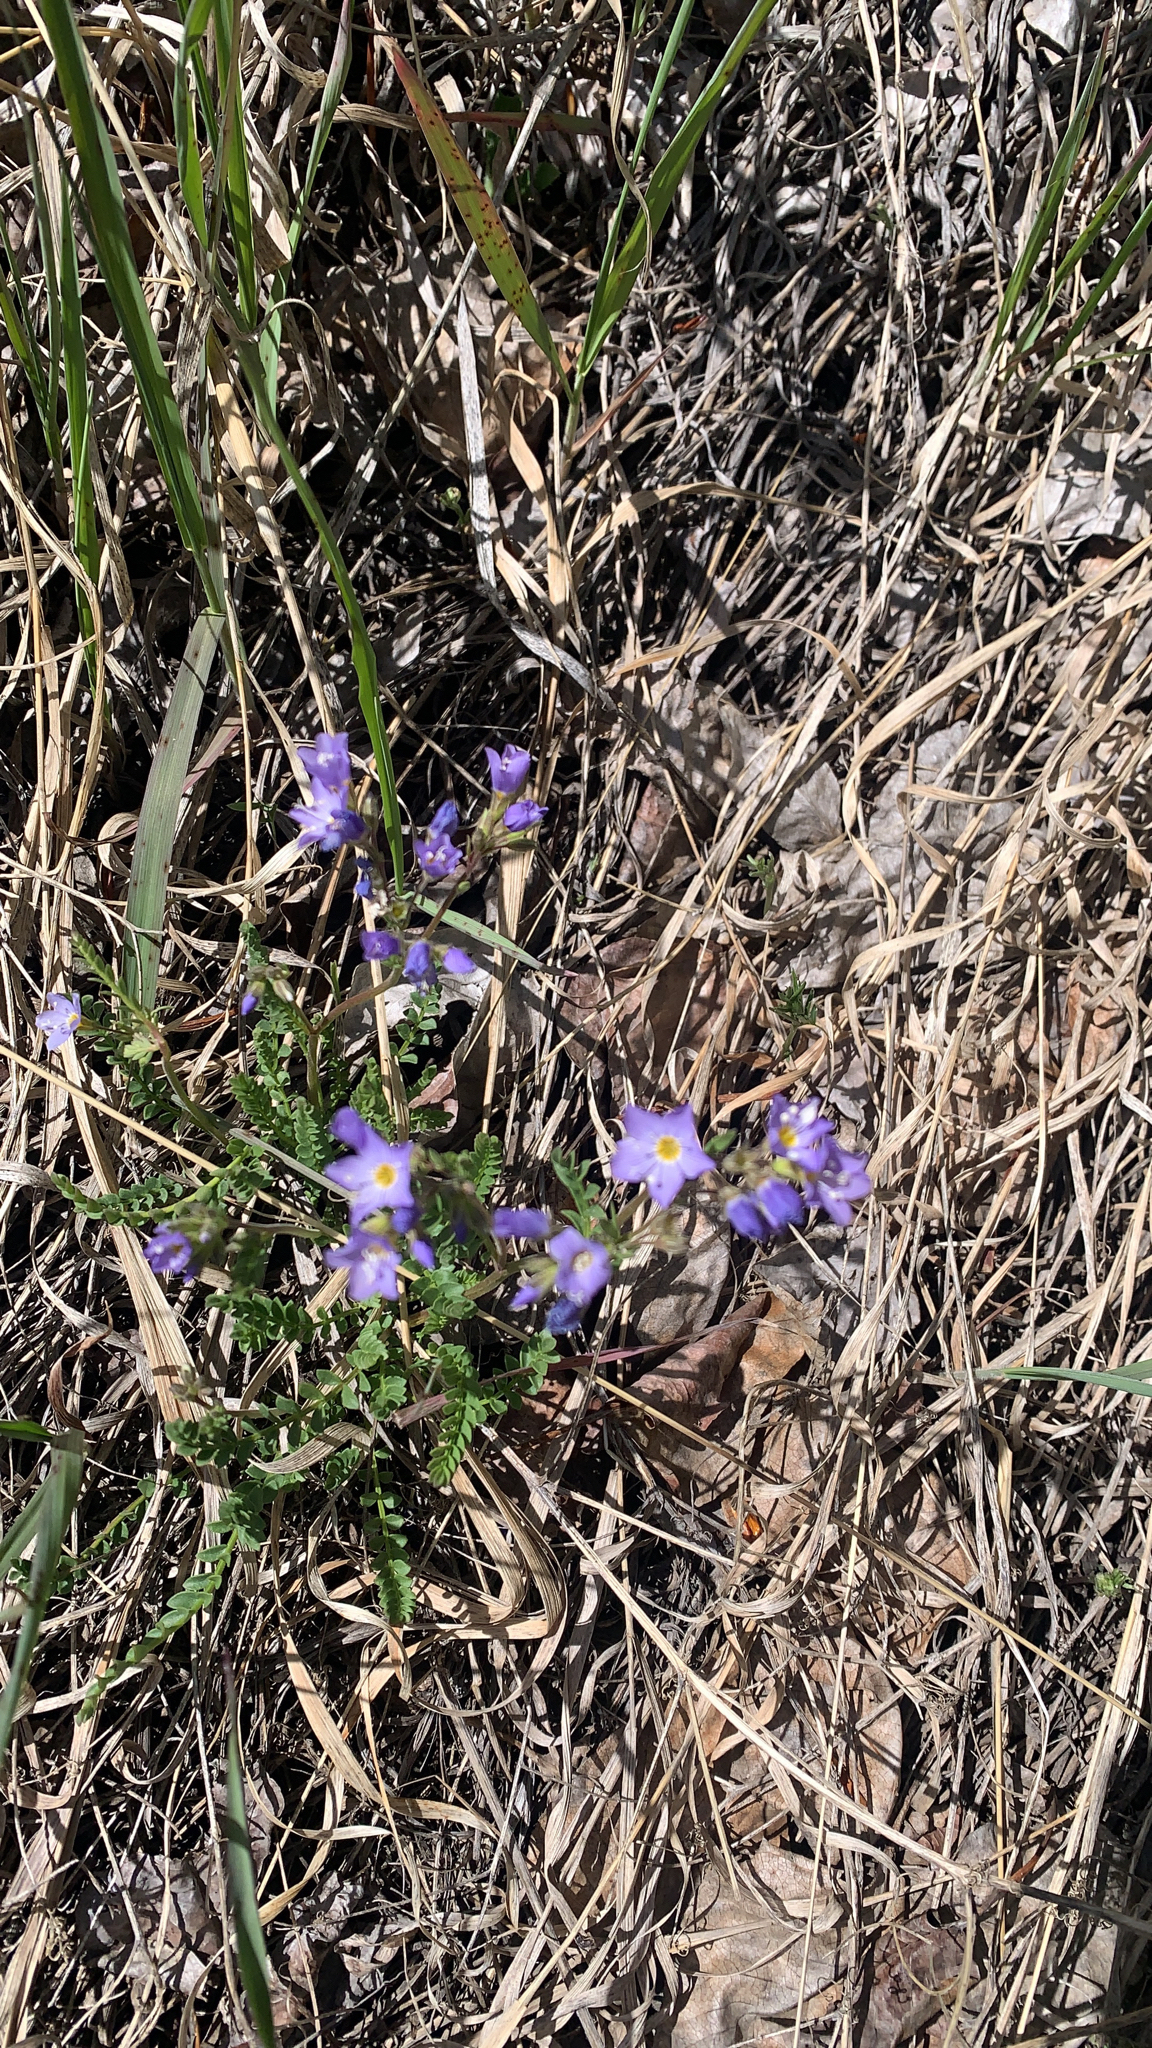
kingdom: Plantae
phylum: Tracheophyta
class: Magnoliopsida
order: Ericales
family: Polemoniaceae
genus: Polemonium
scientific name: Polemonium pulcherrimum
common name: Short jacob's-ladder
